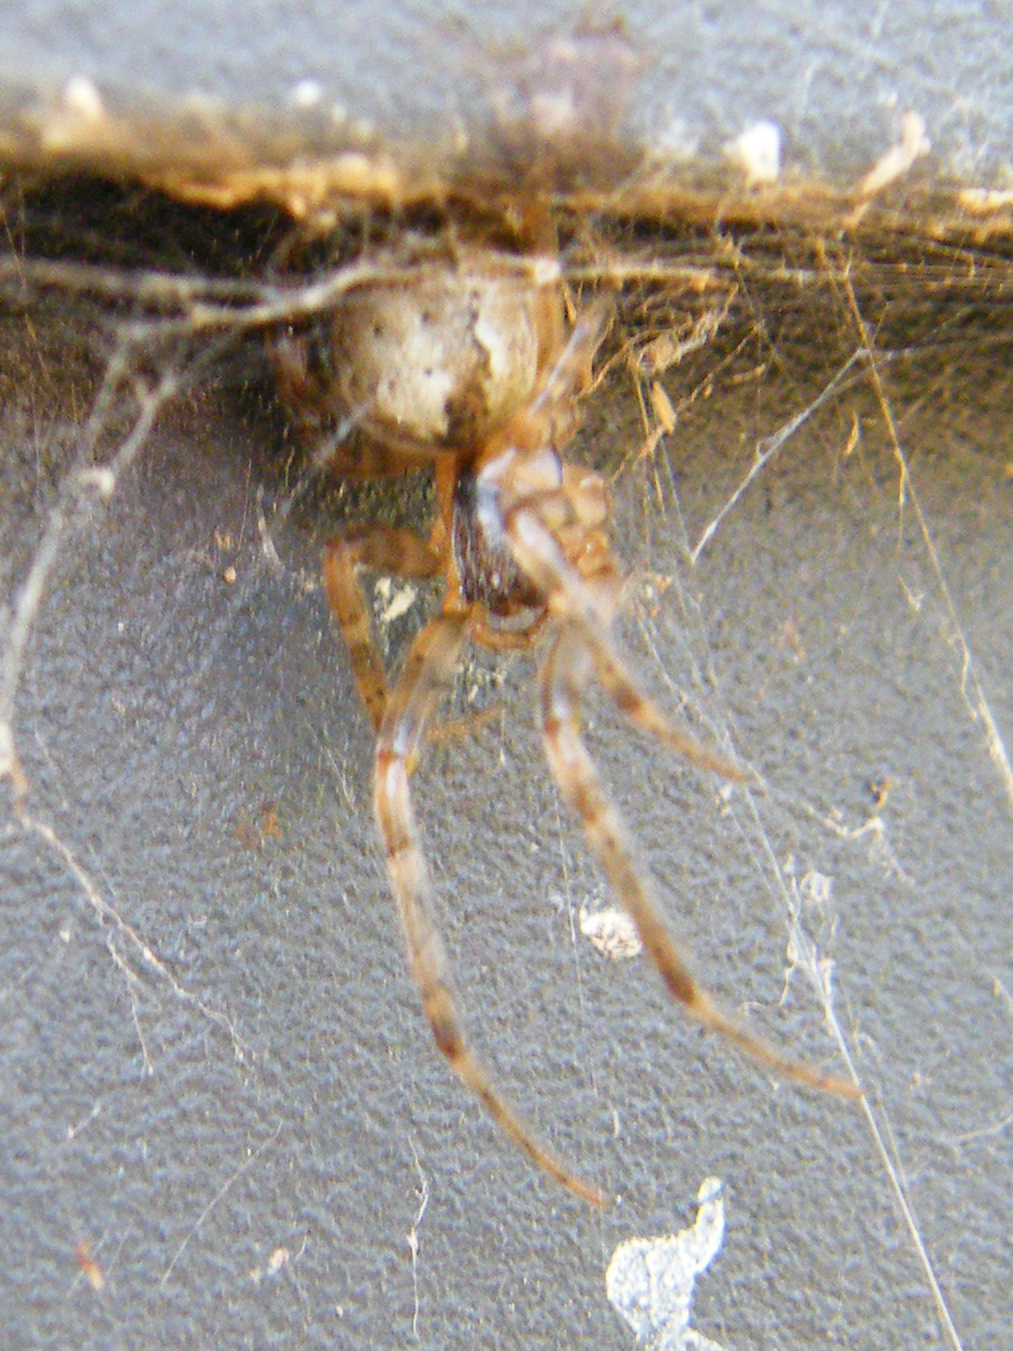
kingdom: Animalia
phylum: Arthropoda
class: Arachnida
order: Araneae
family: Araneidae
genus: Zygiella
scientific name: Zygiella x-notata
